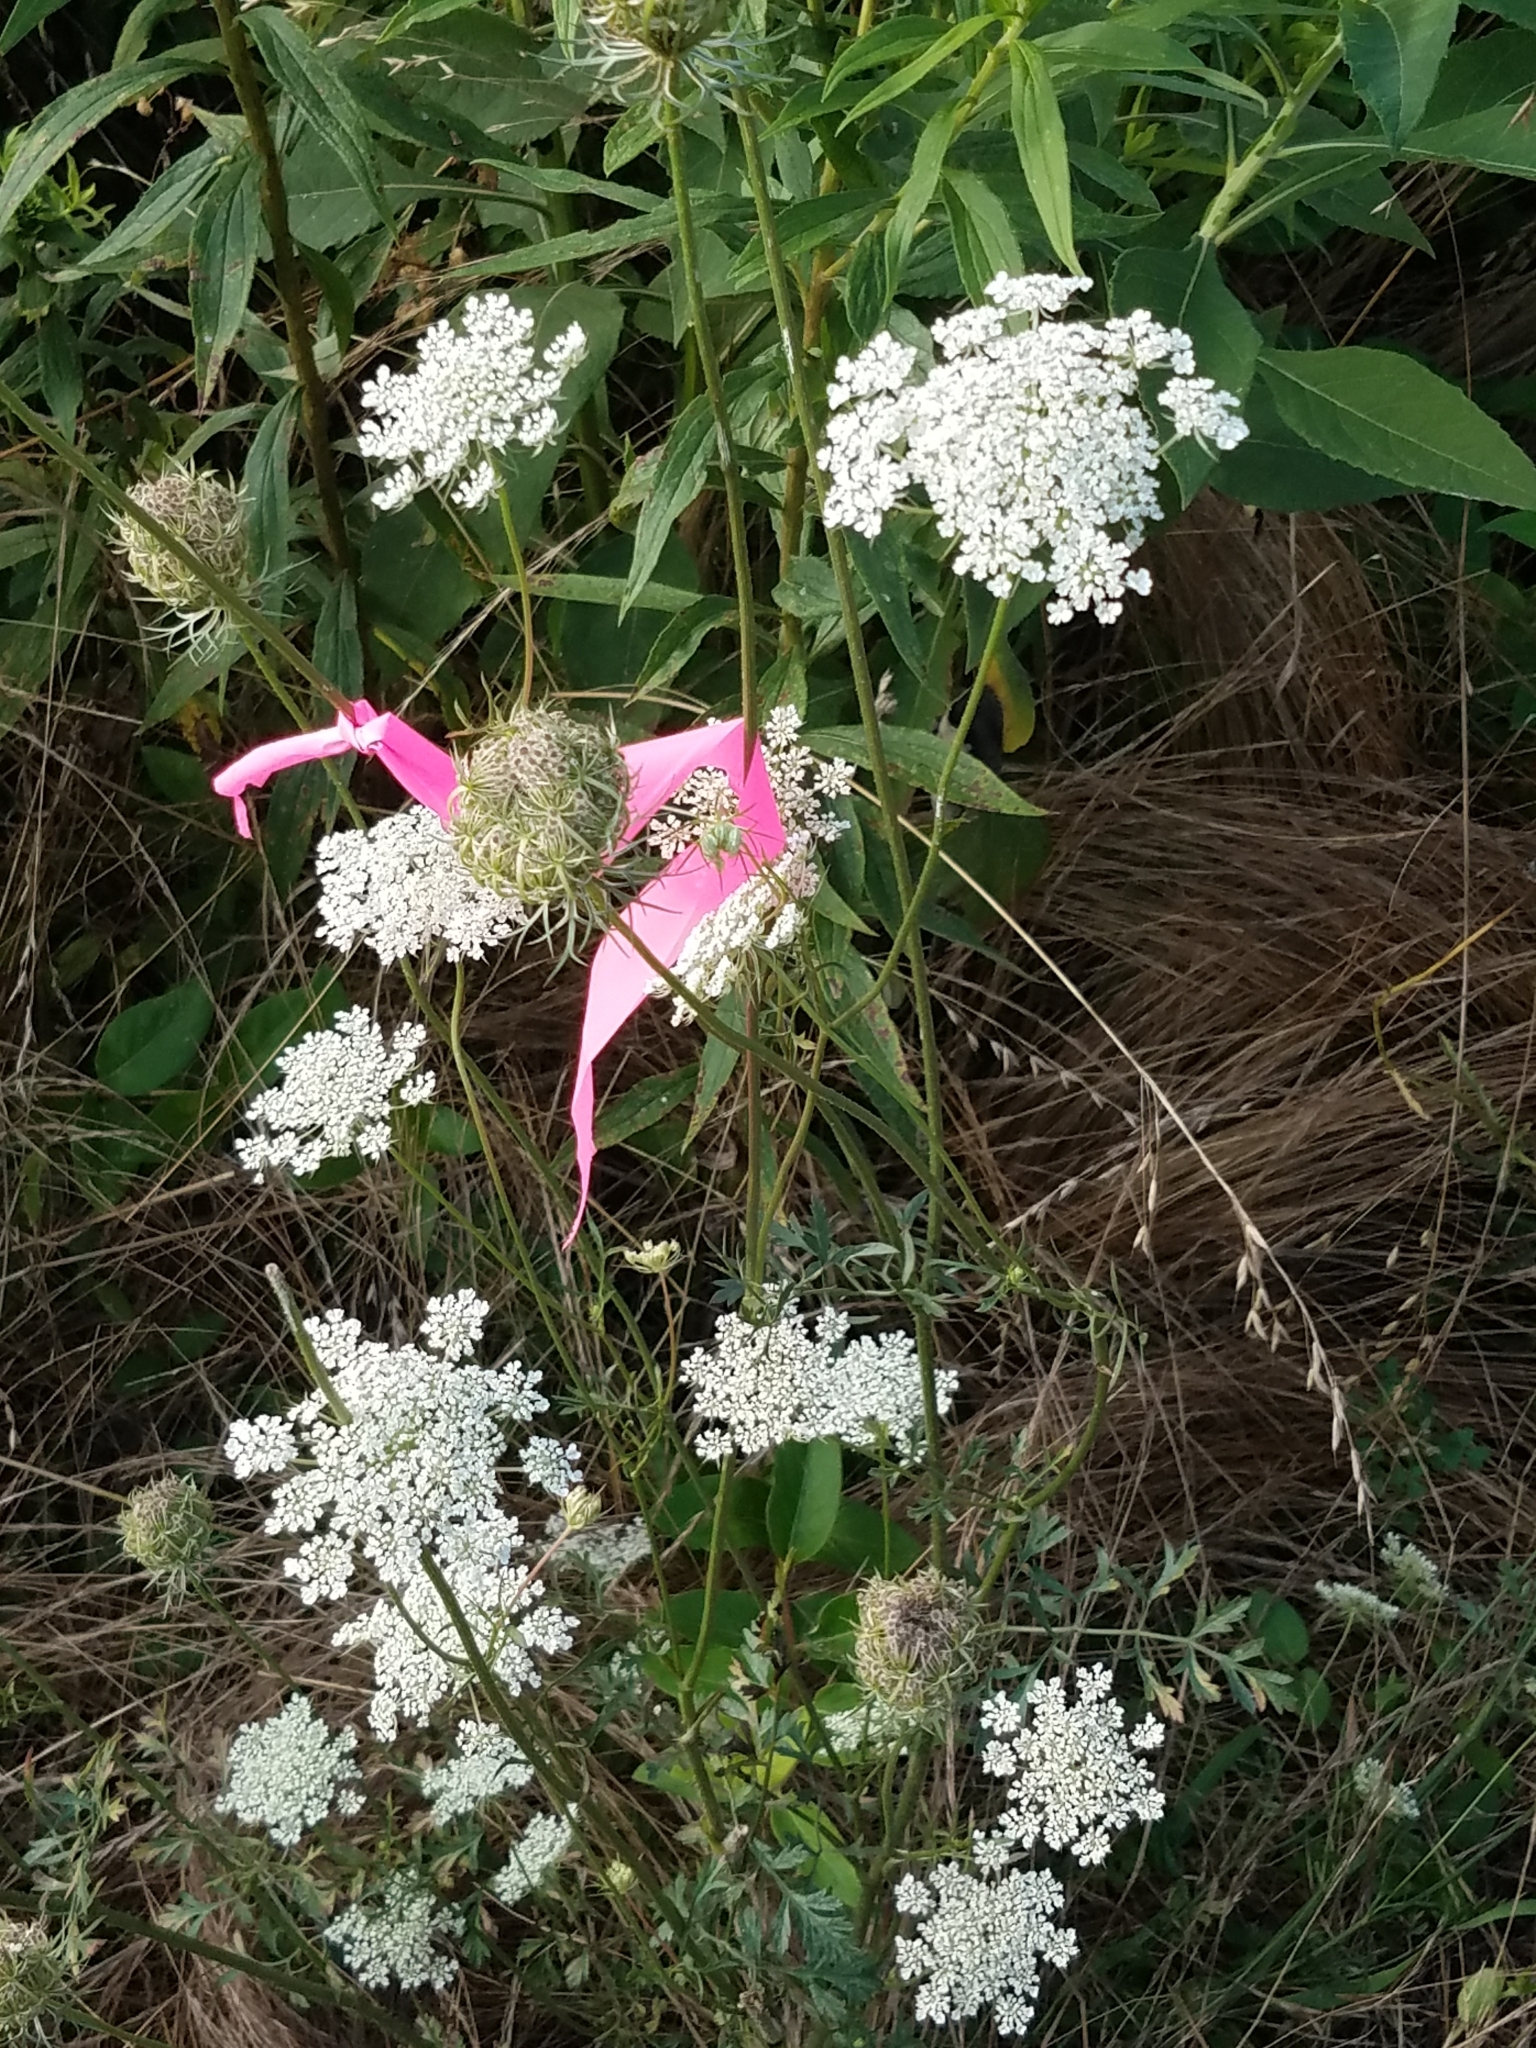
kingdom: Plantae
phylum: Tracheophyta
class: Magnoliopsida
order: Apiales
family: Apiaceae
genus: Daucus
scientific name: Daucus carota
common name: Wild carrot
